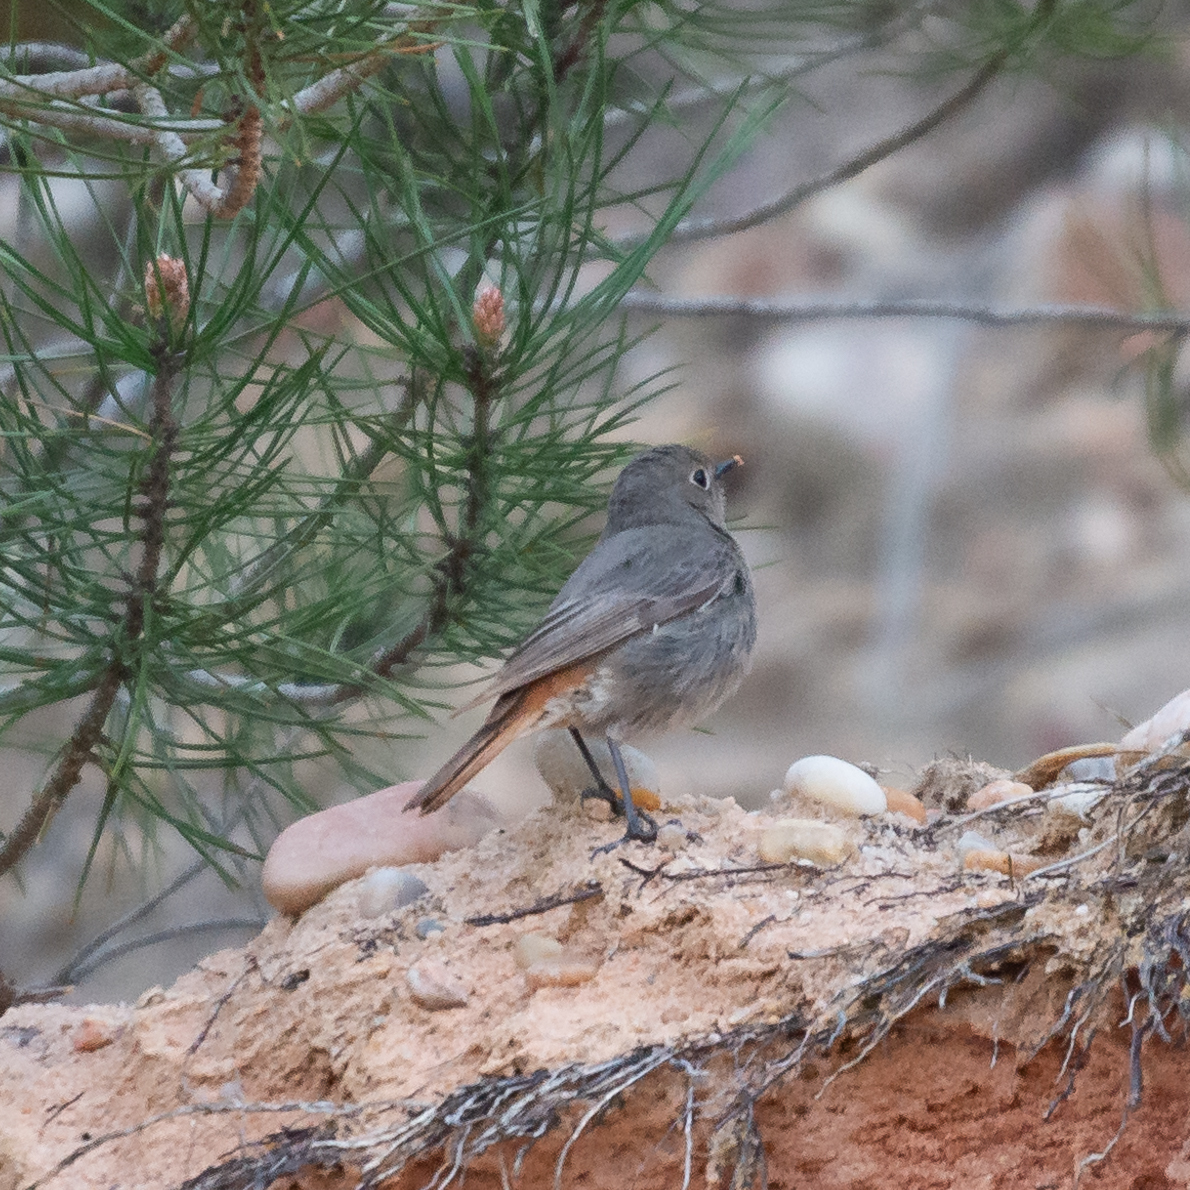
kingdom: Animalia
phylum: Chordata
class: Aves
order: Passeriformes
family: Muscicapidae
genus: Phoenicurus
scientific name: Phoenicurus ochruros
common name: Black redstart
